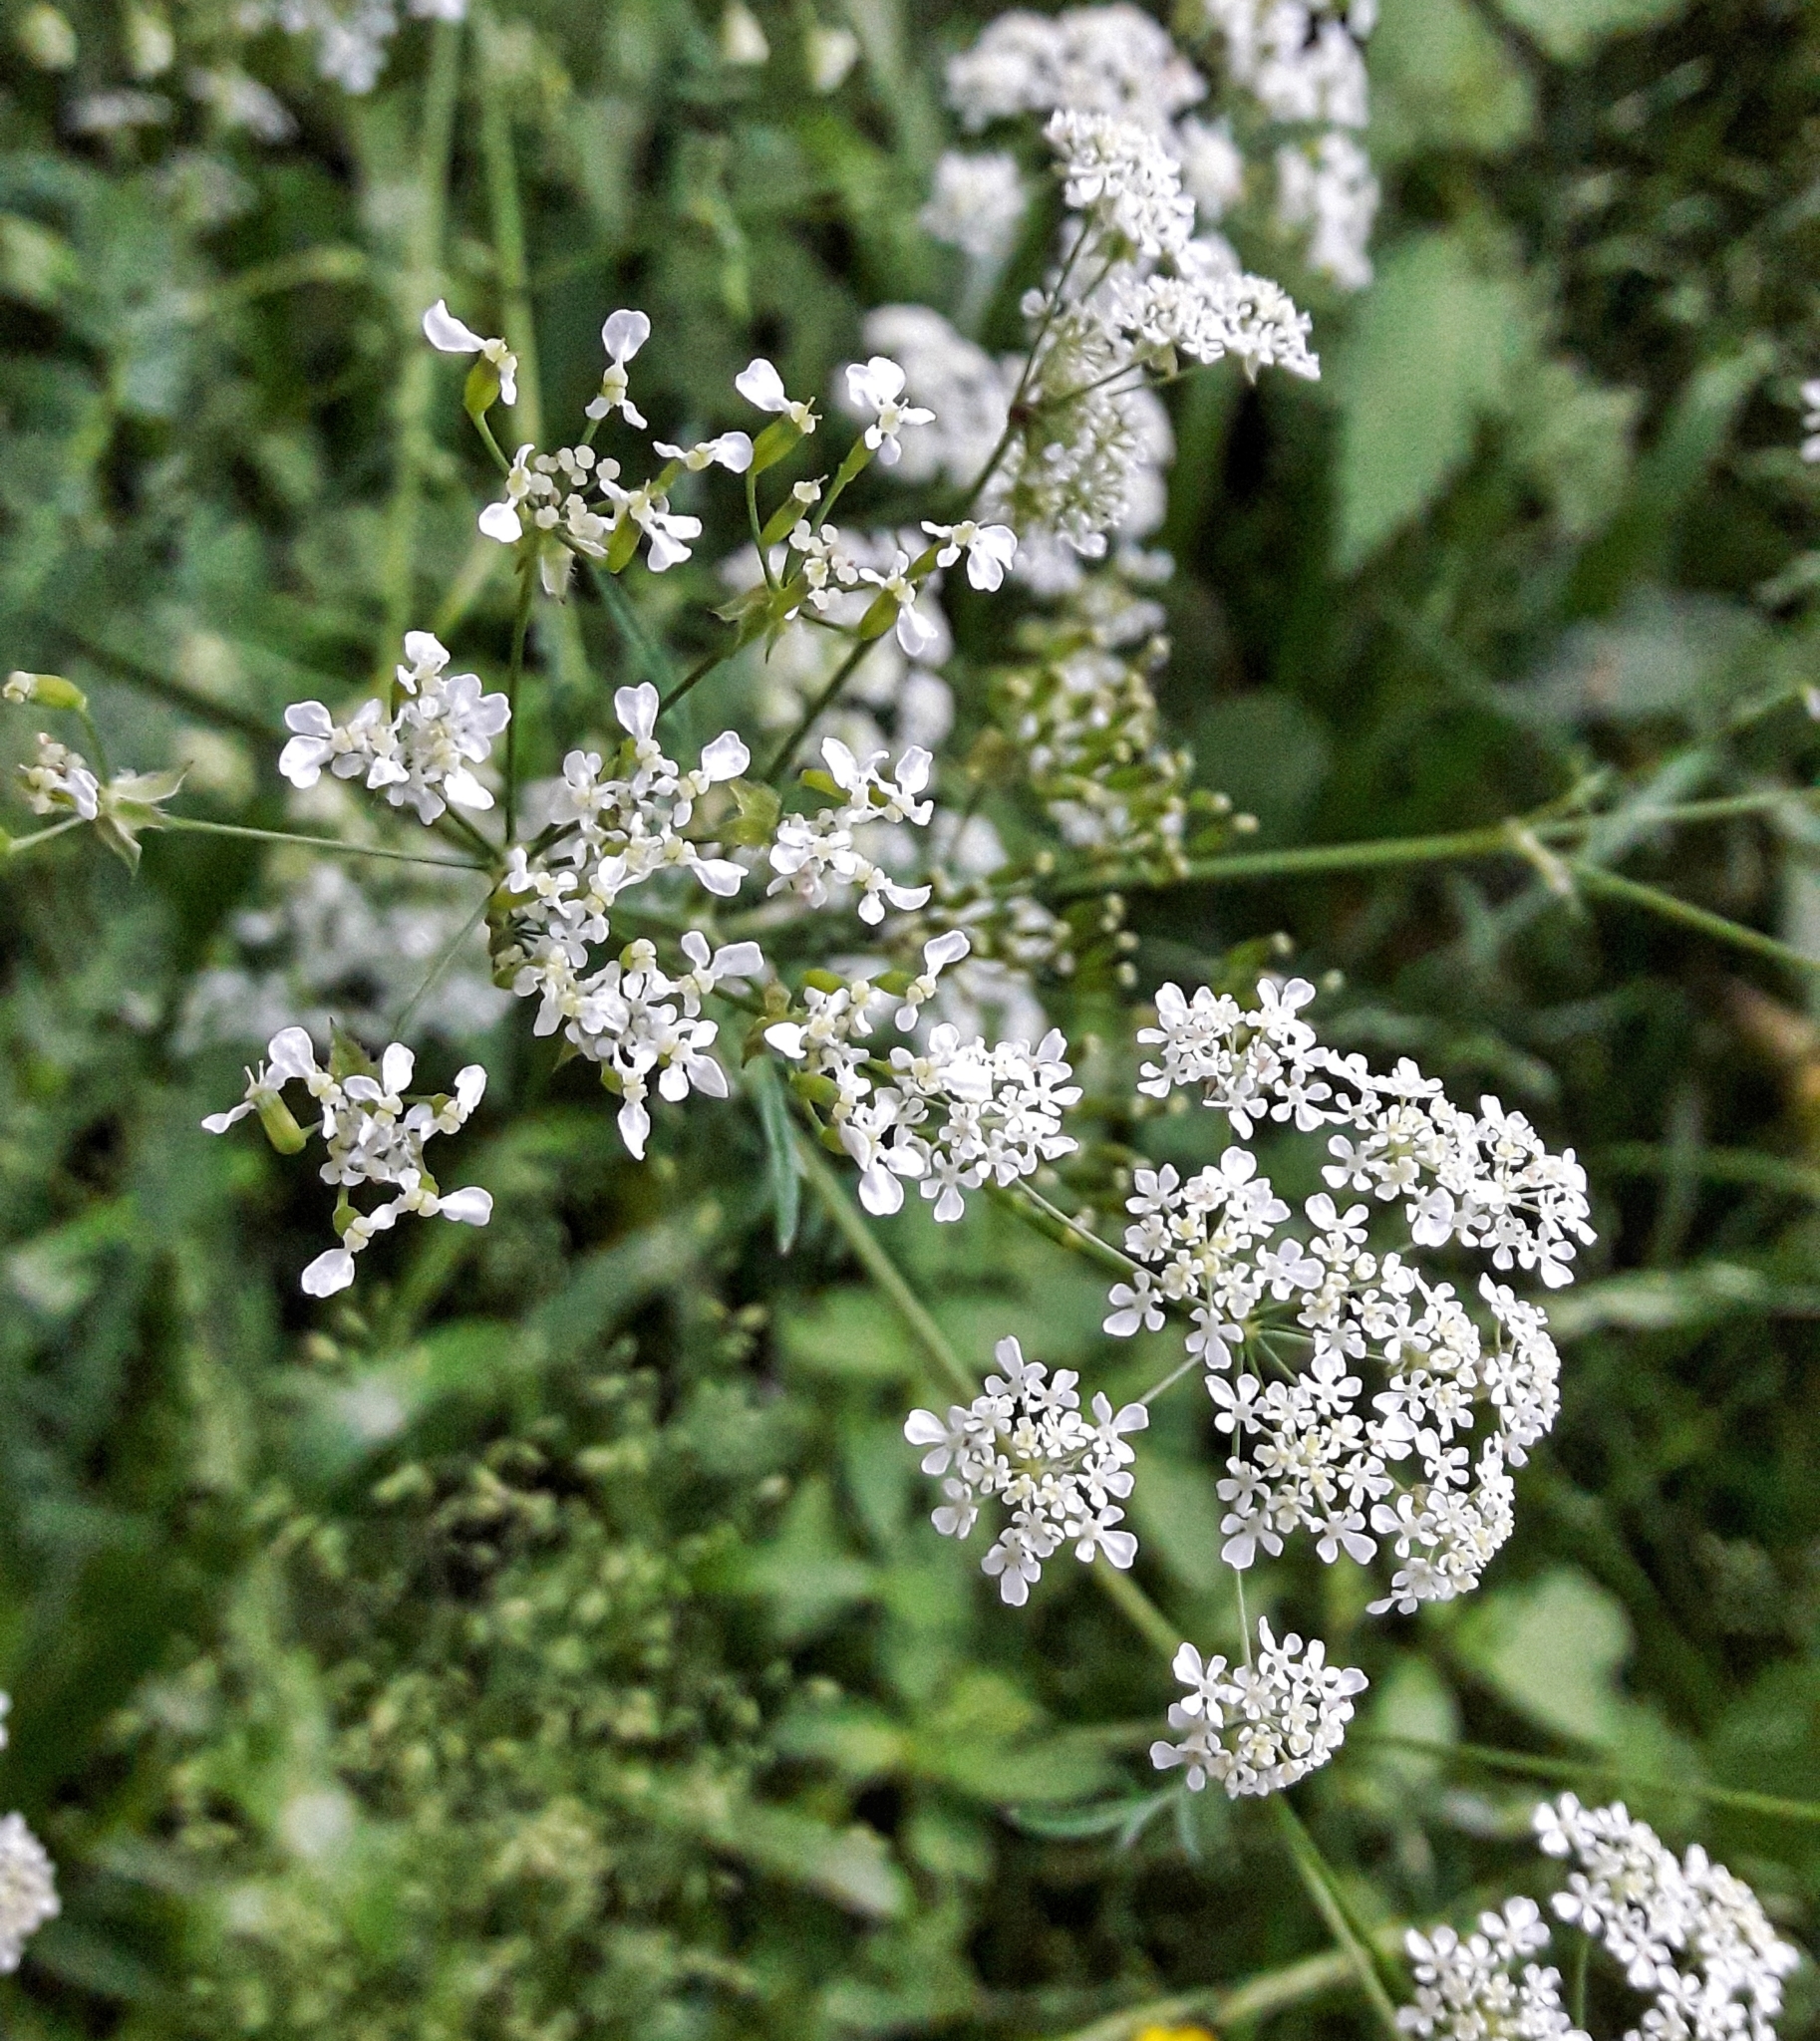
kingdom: Plantae
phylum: Tracheophyta
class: Magnoliopsida
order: Apiales
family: Apiaceae
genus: Anthriscus
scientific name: Anthriscus sylvestris
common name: Cow parsley
